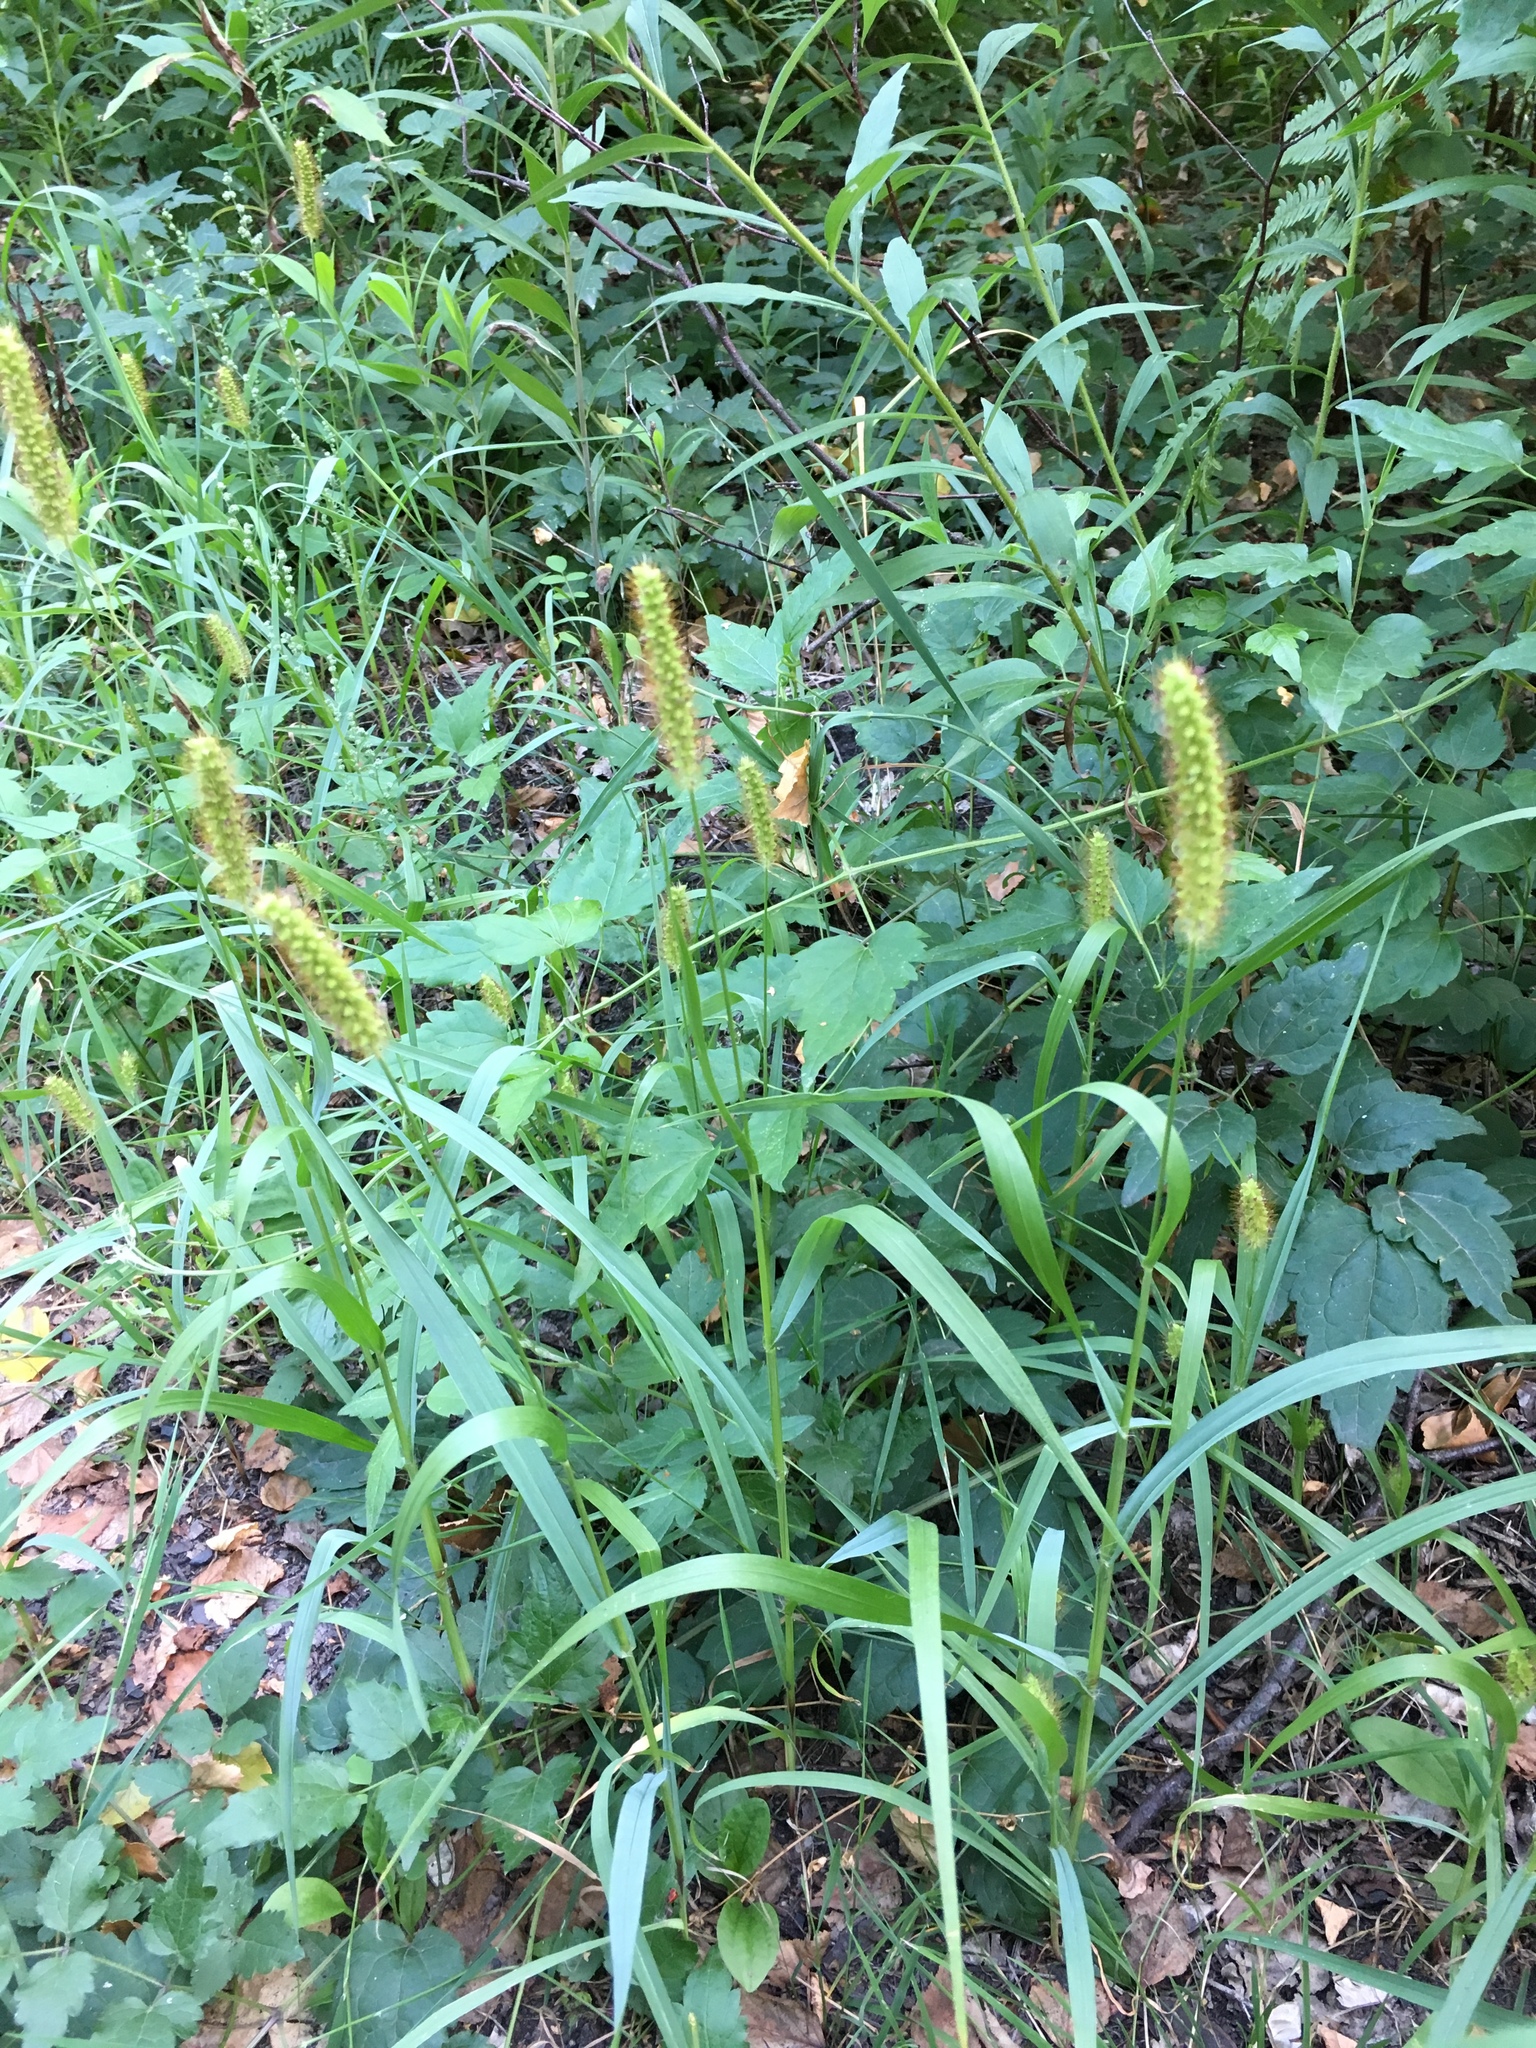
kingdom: Plantae
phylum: Tracheophyta
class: Liliopsida
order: Poales
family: Poaceae
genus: Setaria
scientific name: Setaria pumila
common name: Yellow bristle-grass
